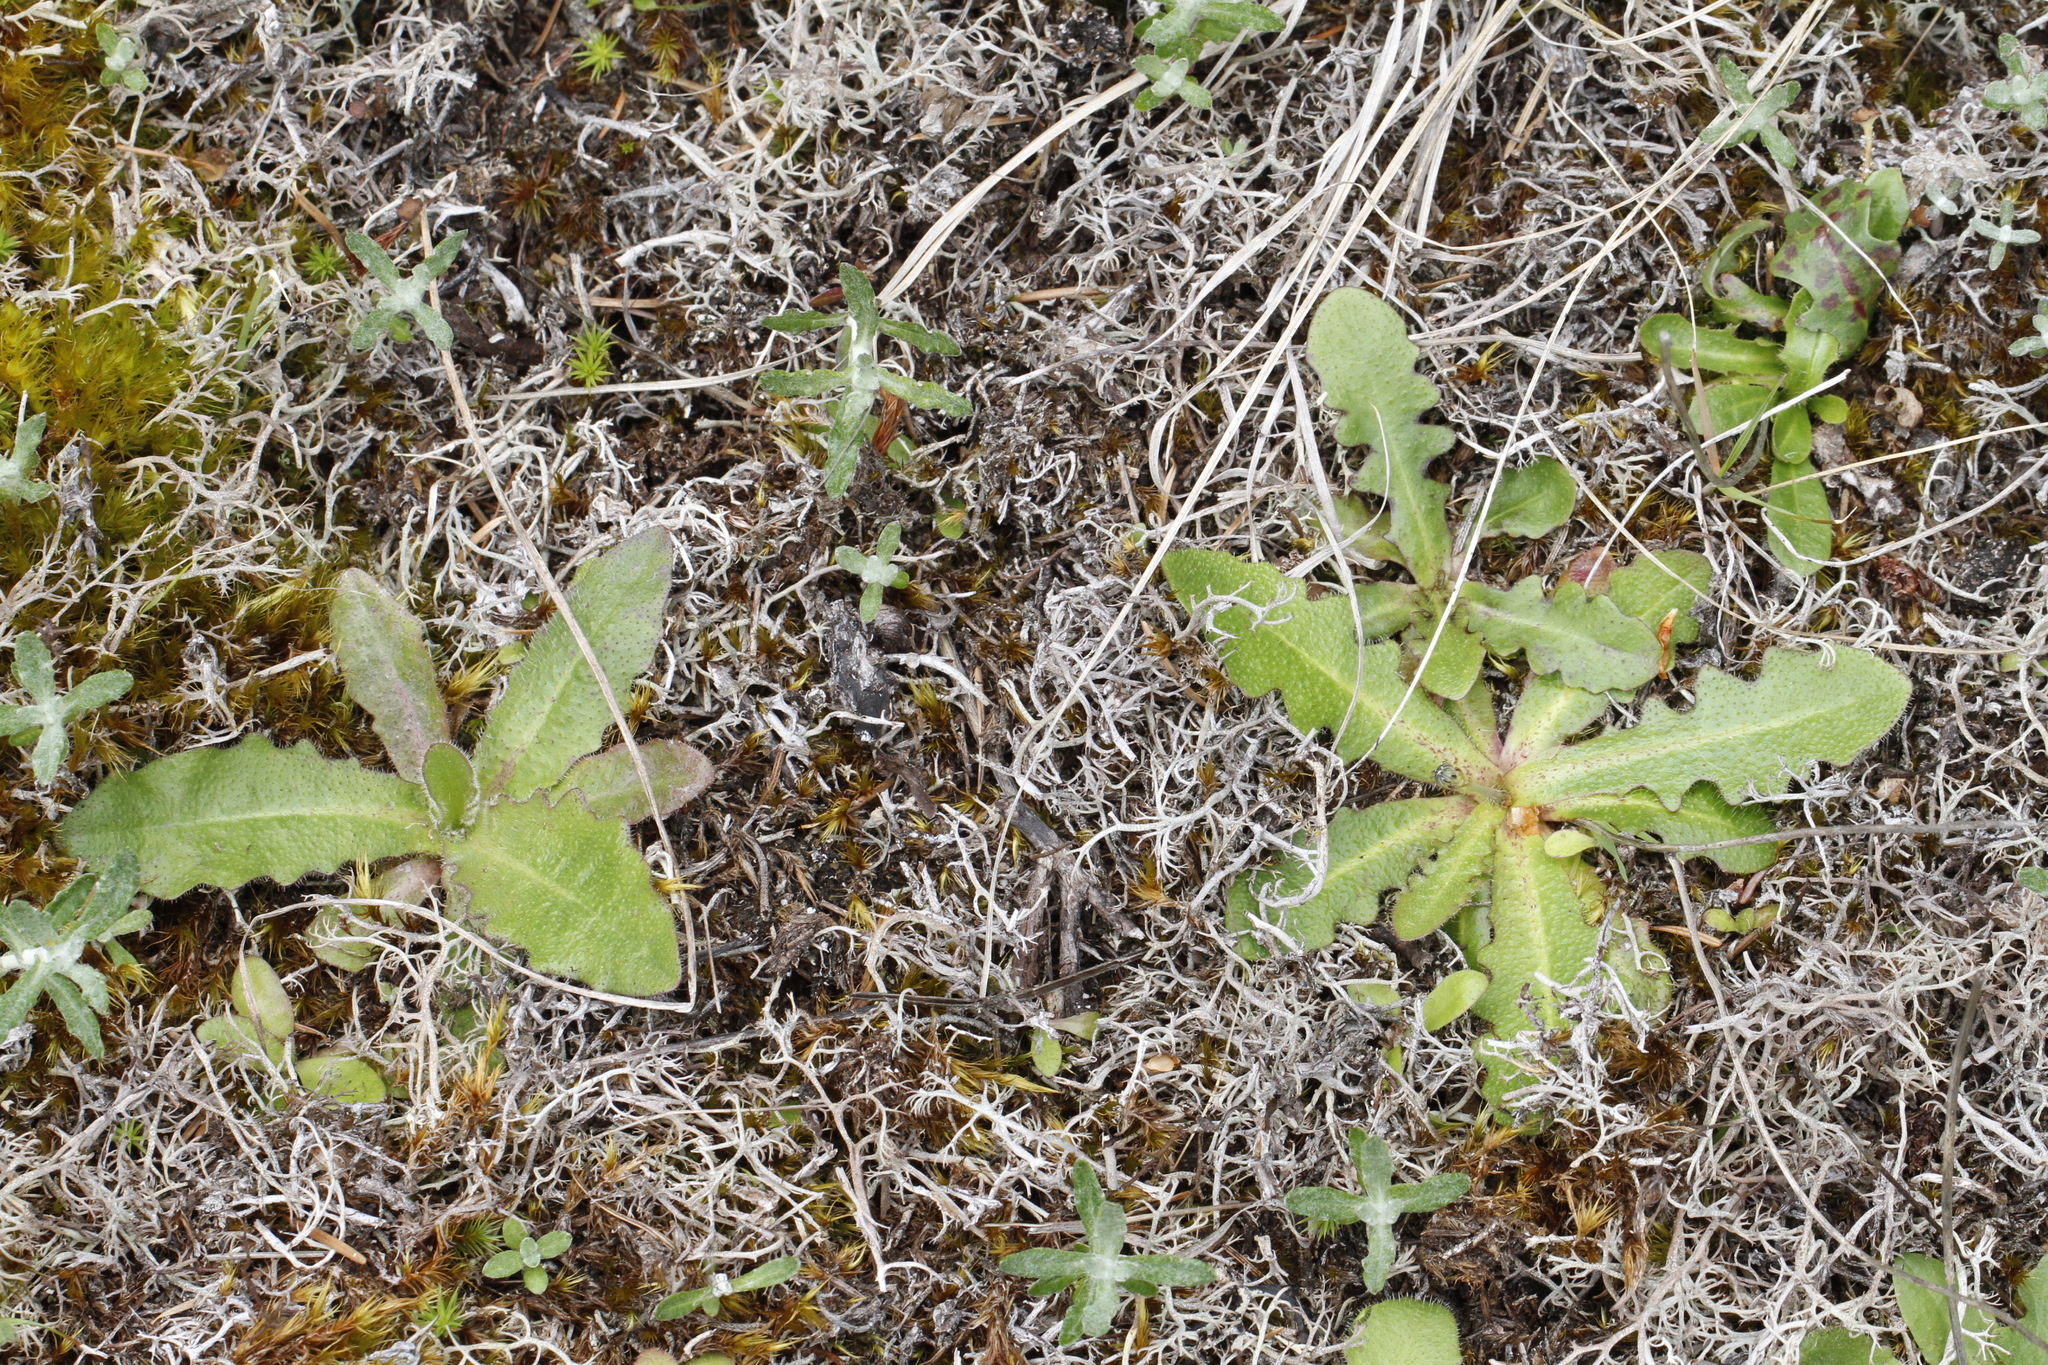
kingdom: Plantae
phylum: Tracheophyta
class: Magnoliopsida
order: Asterales
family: Asteraceae
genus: Hypochaeris
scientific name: Hypochaeris radicata
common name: Flatweed
